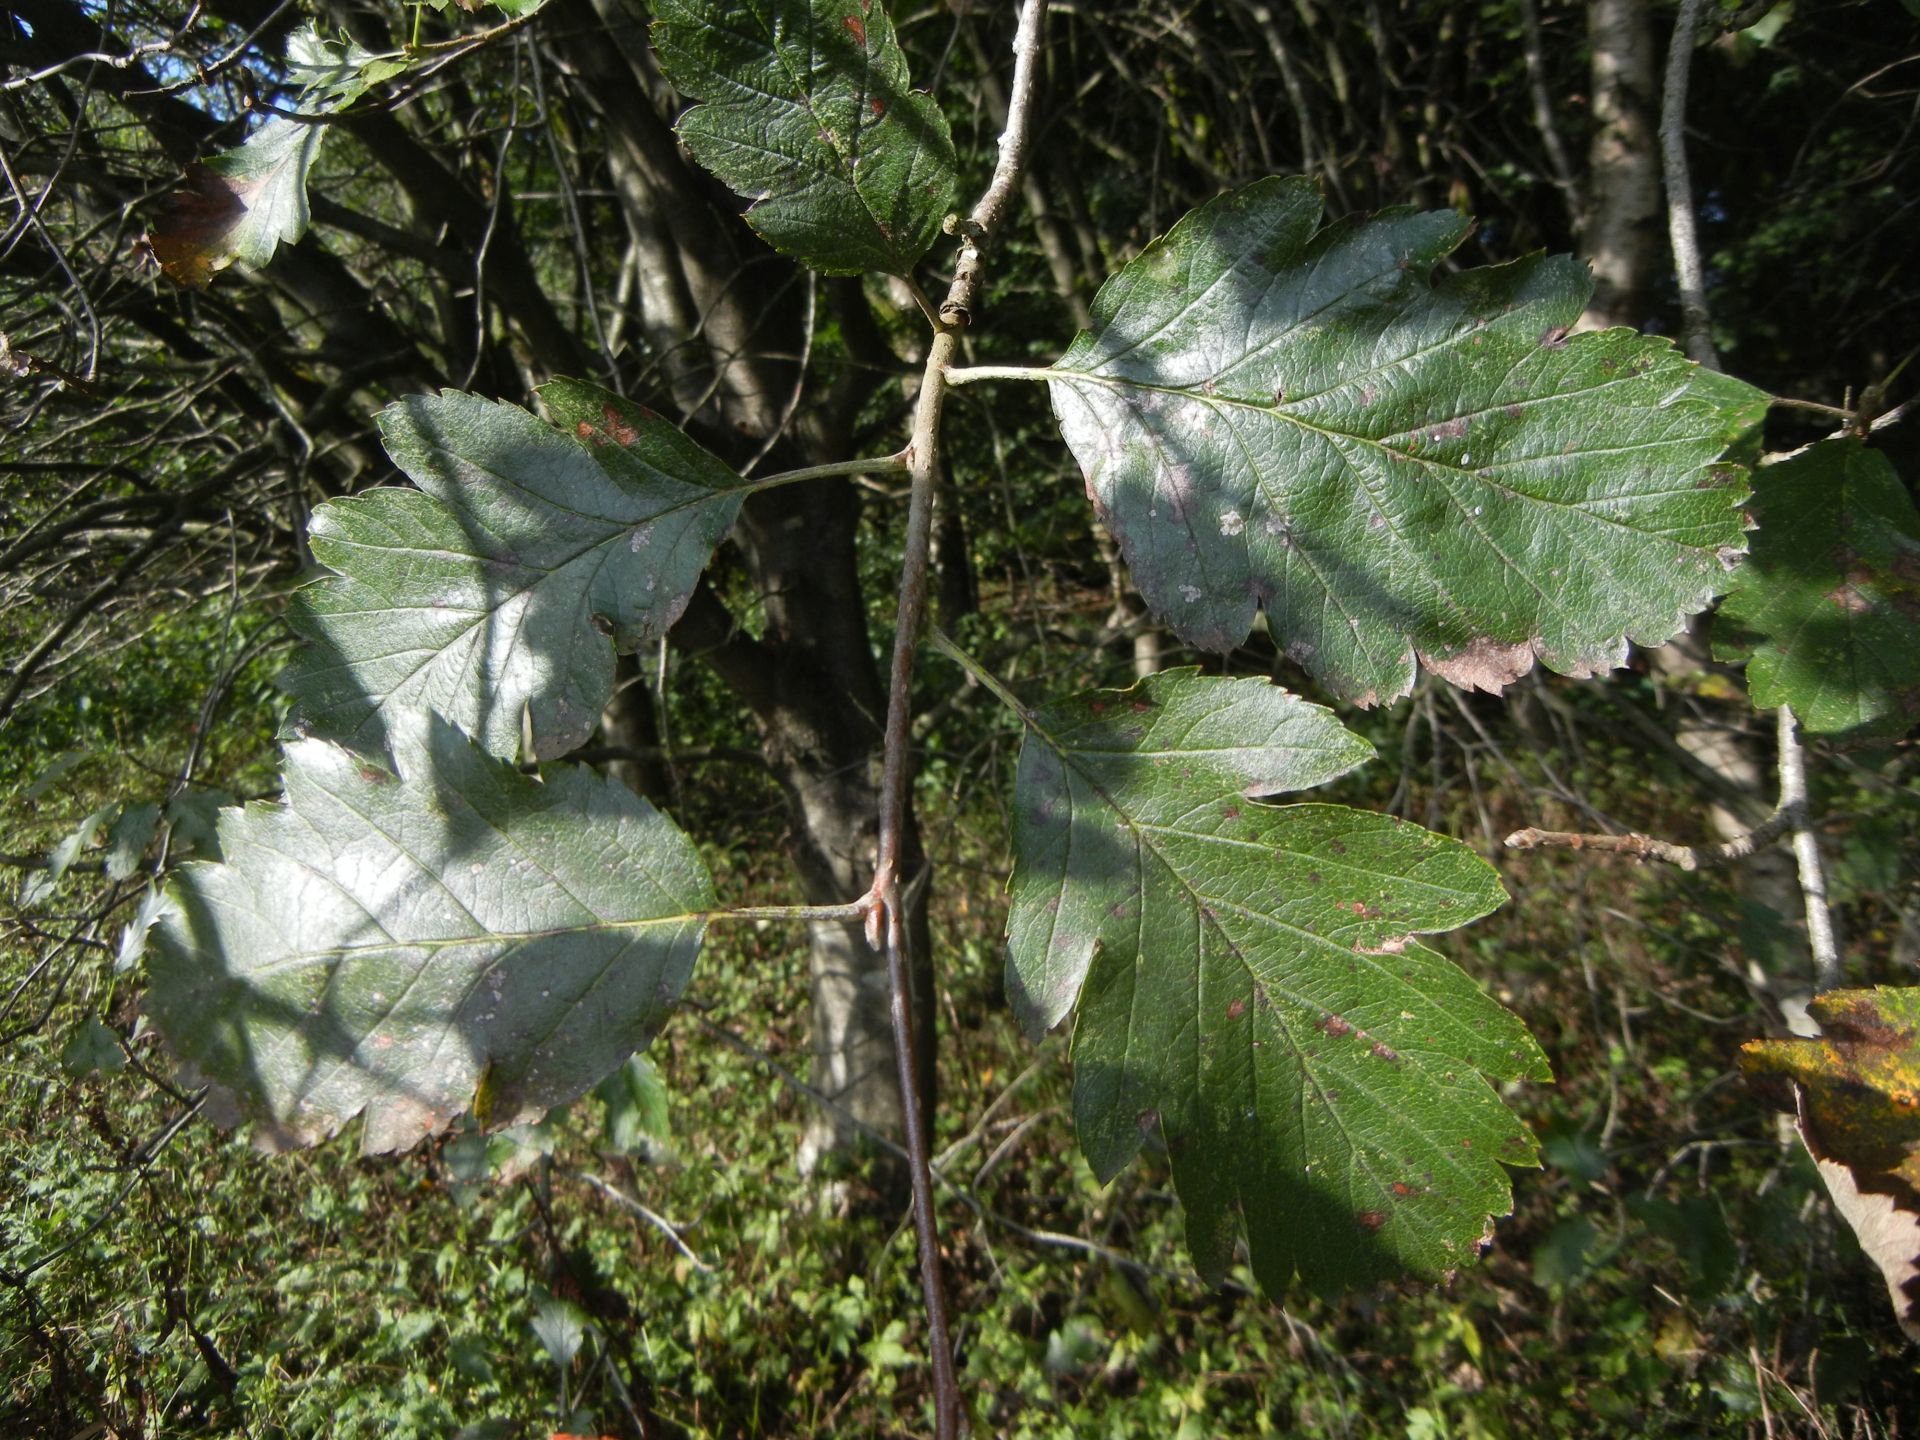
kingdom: Plantae
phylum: Tracheophyta
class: Magnoliopsida
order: Rosales
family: Rosaceae
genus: Scandosorbus
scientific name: Scandosorbus intermedia
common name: Swedish whitebeam
